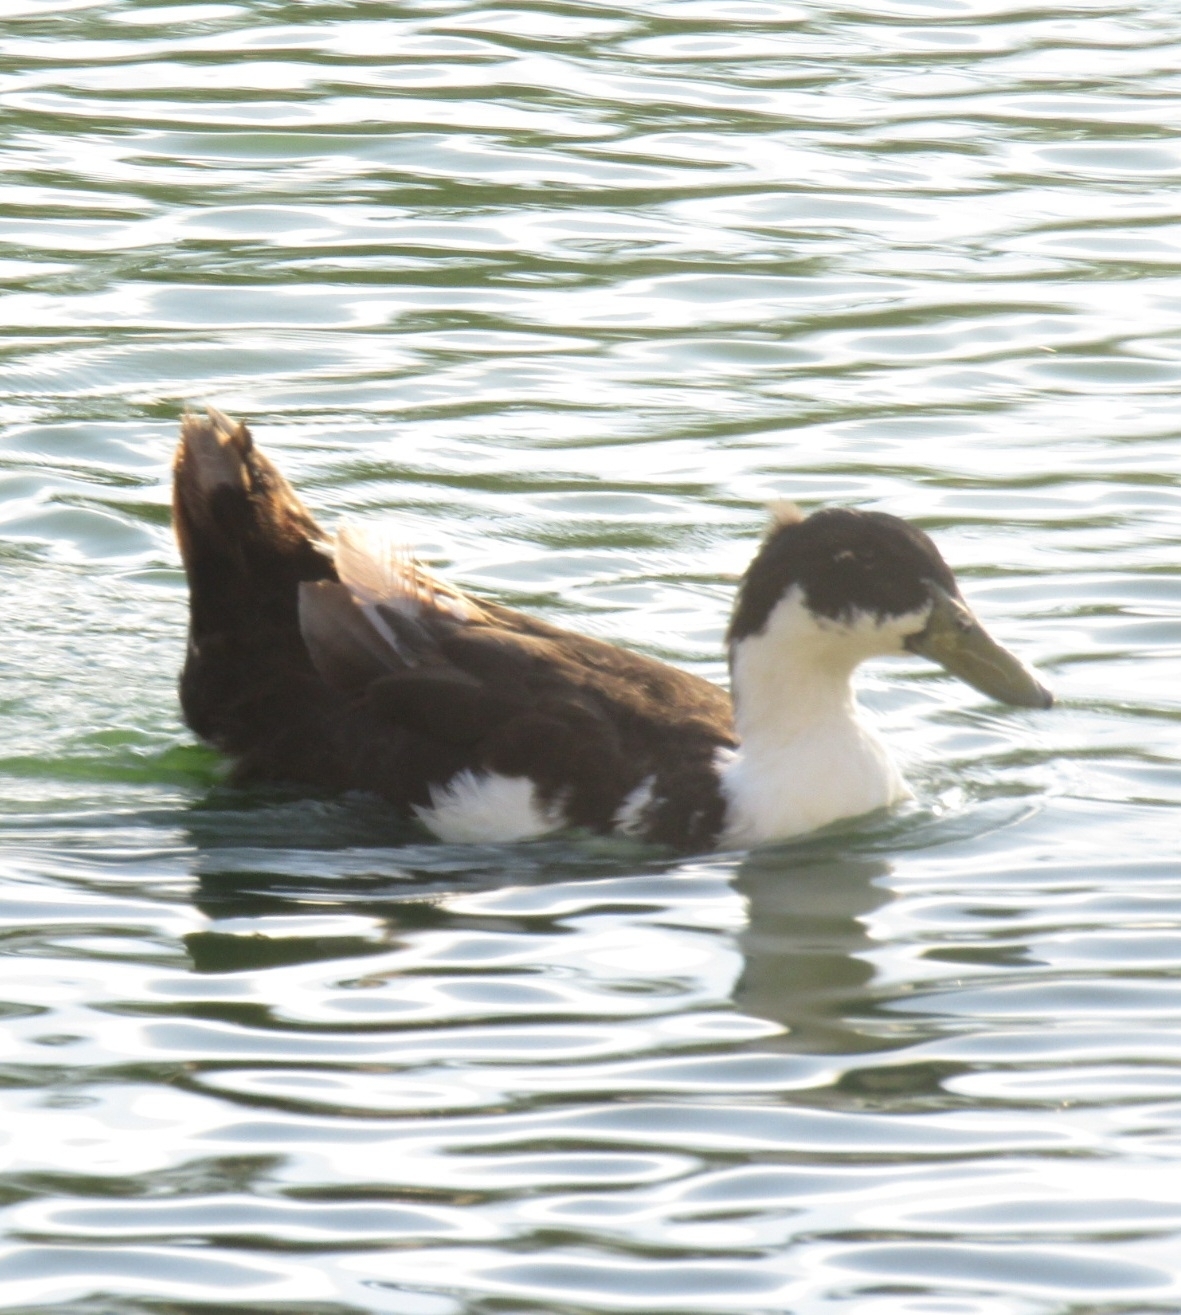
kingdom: Animalia
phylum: Chordata
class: Aves
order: Anseriformes
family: Anatidae
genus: Anas
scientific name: Anas platyrhynchos
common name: Mallard
